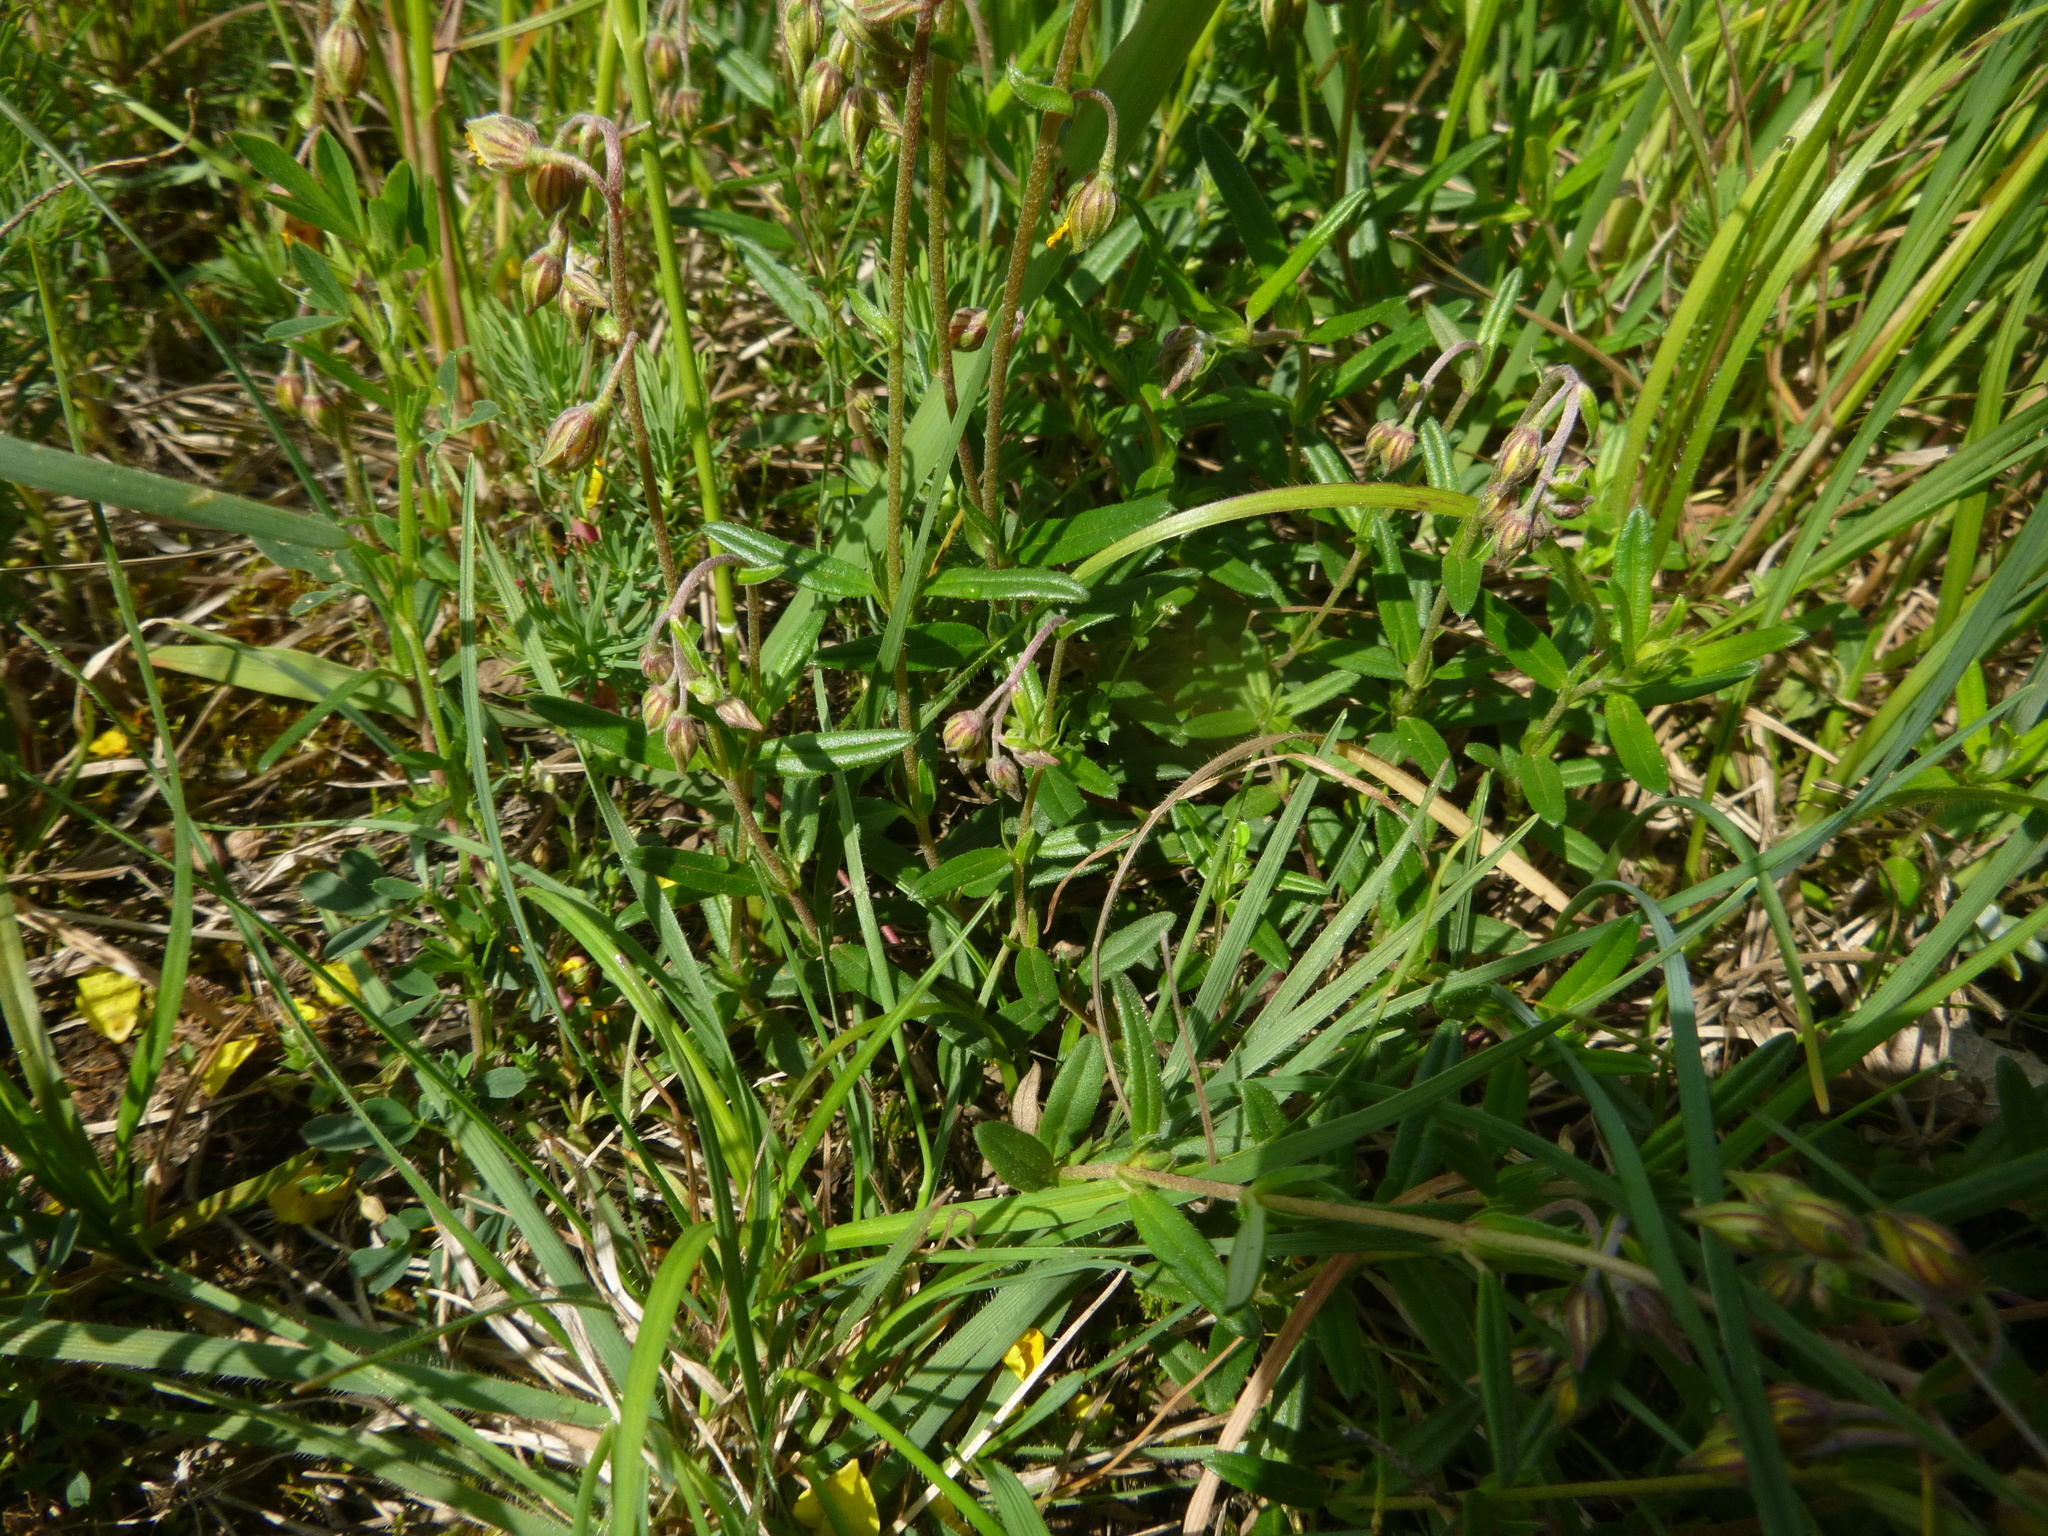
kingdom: Plantae
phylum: Tracheophyta
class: Magnoliopsida
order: Malvales
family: Cistaceae
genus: Helianthemum
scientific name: Helianthemum nummularium
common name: Common rock-rose
